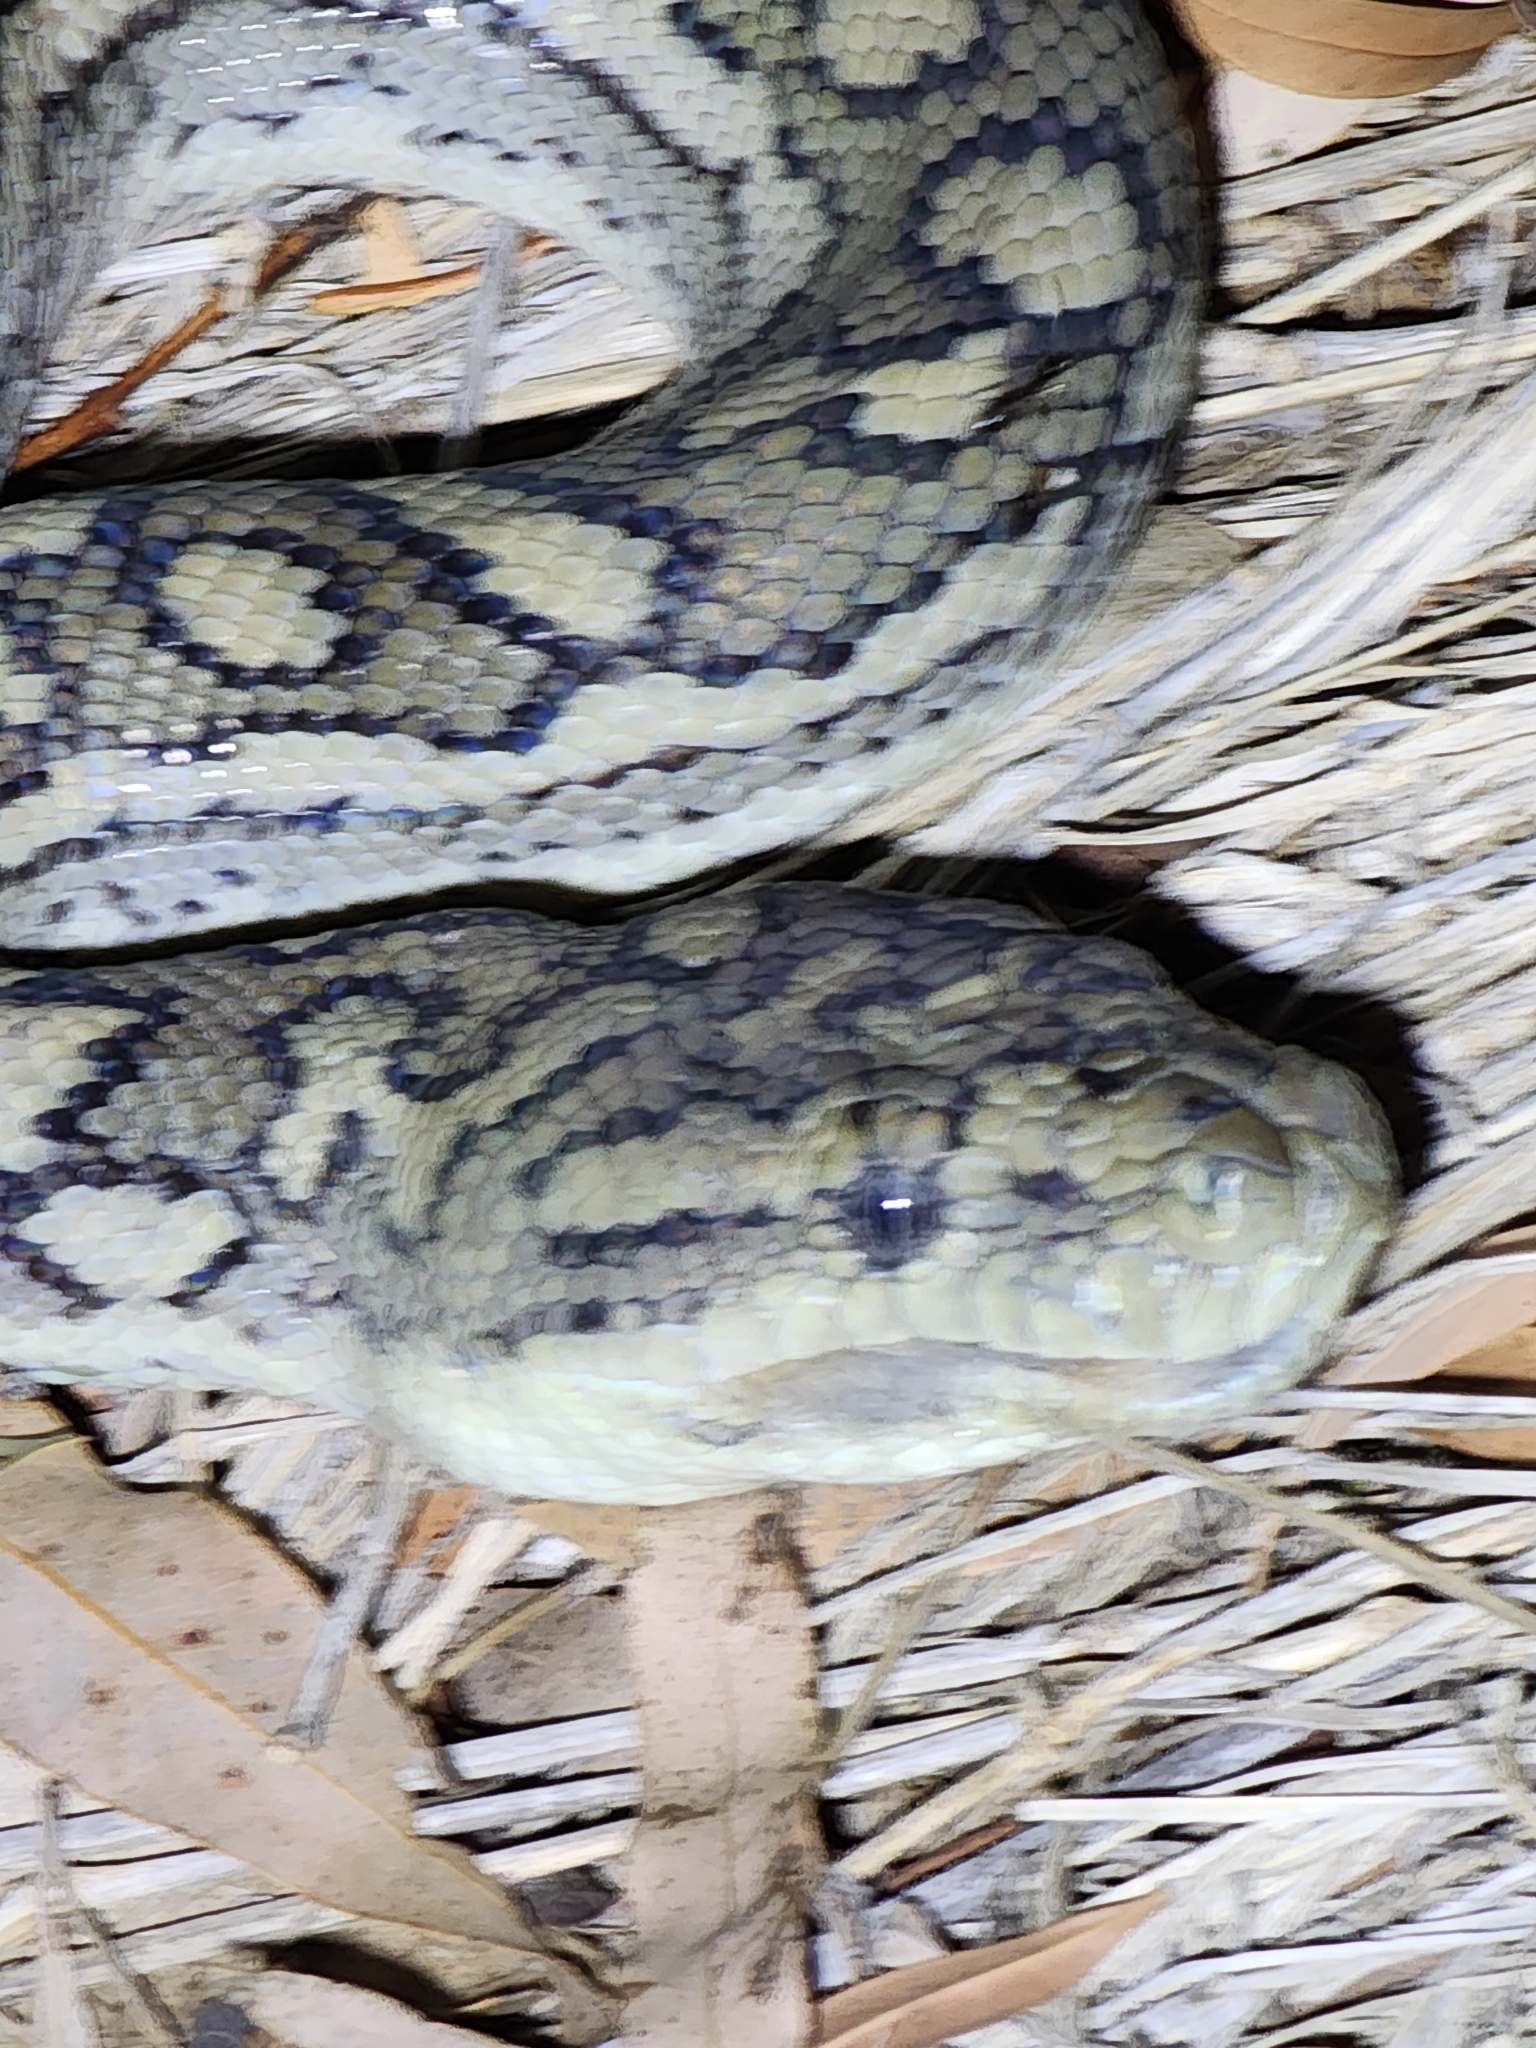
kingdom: Animalia
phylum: Chordata
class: Squamata
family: Pythonidae
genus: Morelia
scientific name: Morelia spilota
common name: Carpet python
